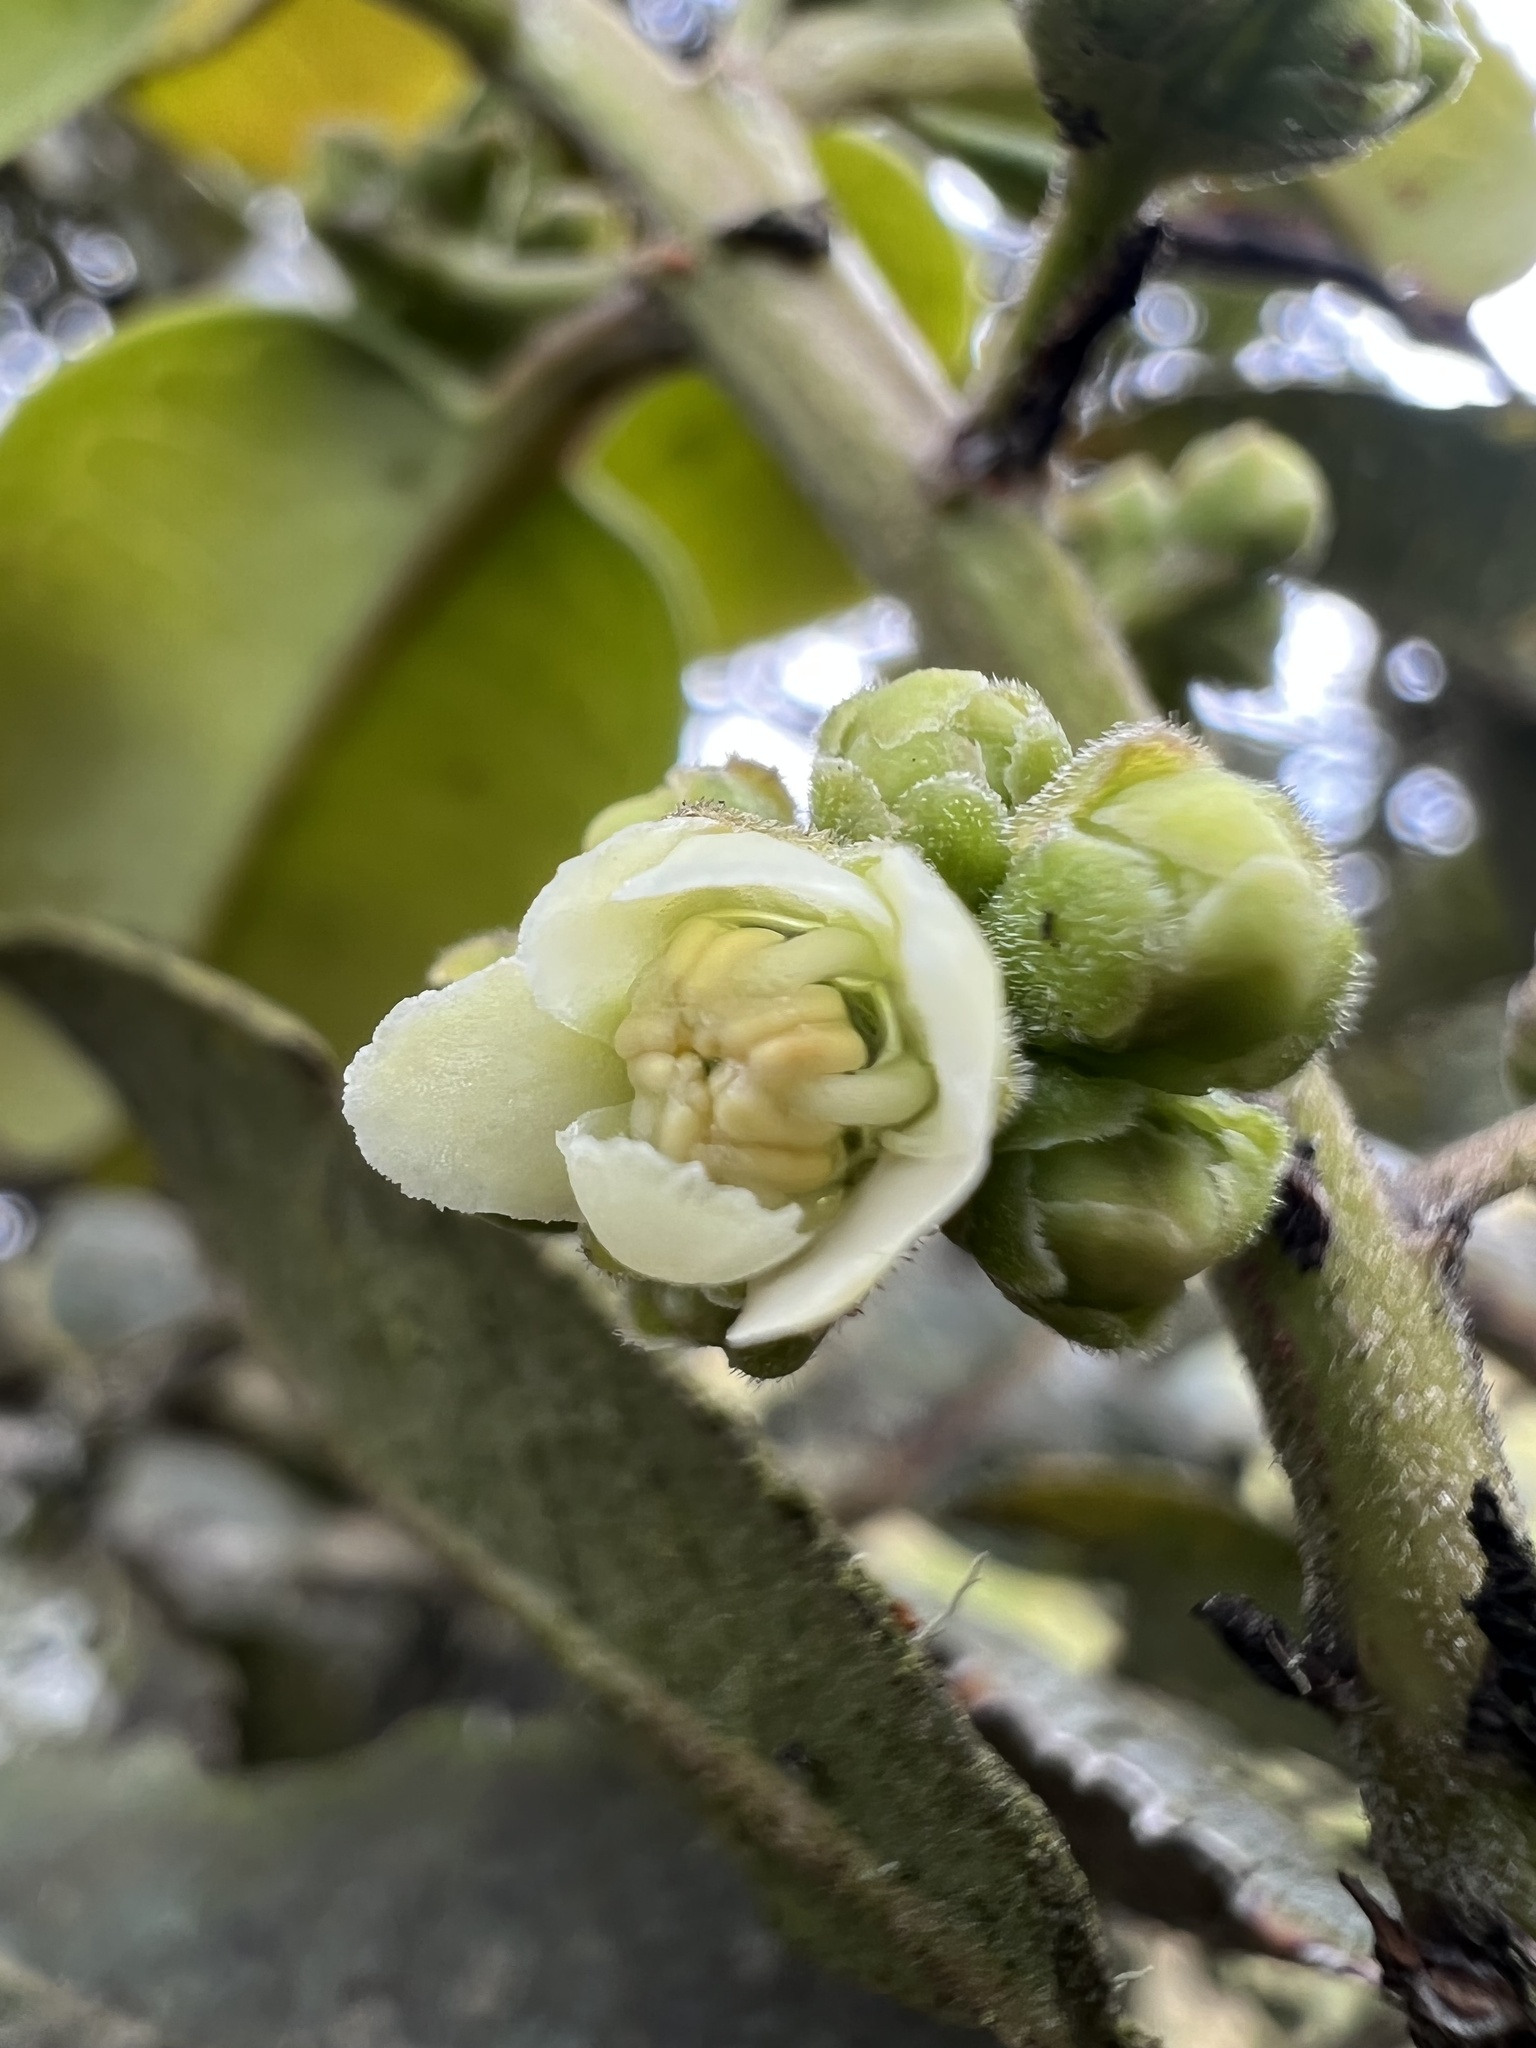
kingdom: Plantae
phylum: Tracheophyta
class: Magnoliopsida
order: Aquifoliales
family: Aquifoliaceae
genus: Ilex
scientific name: Ilex nervosa
